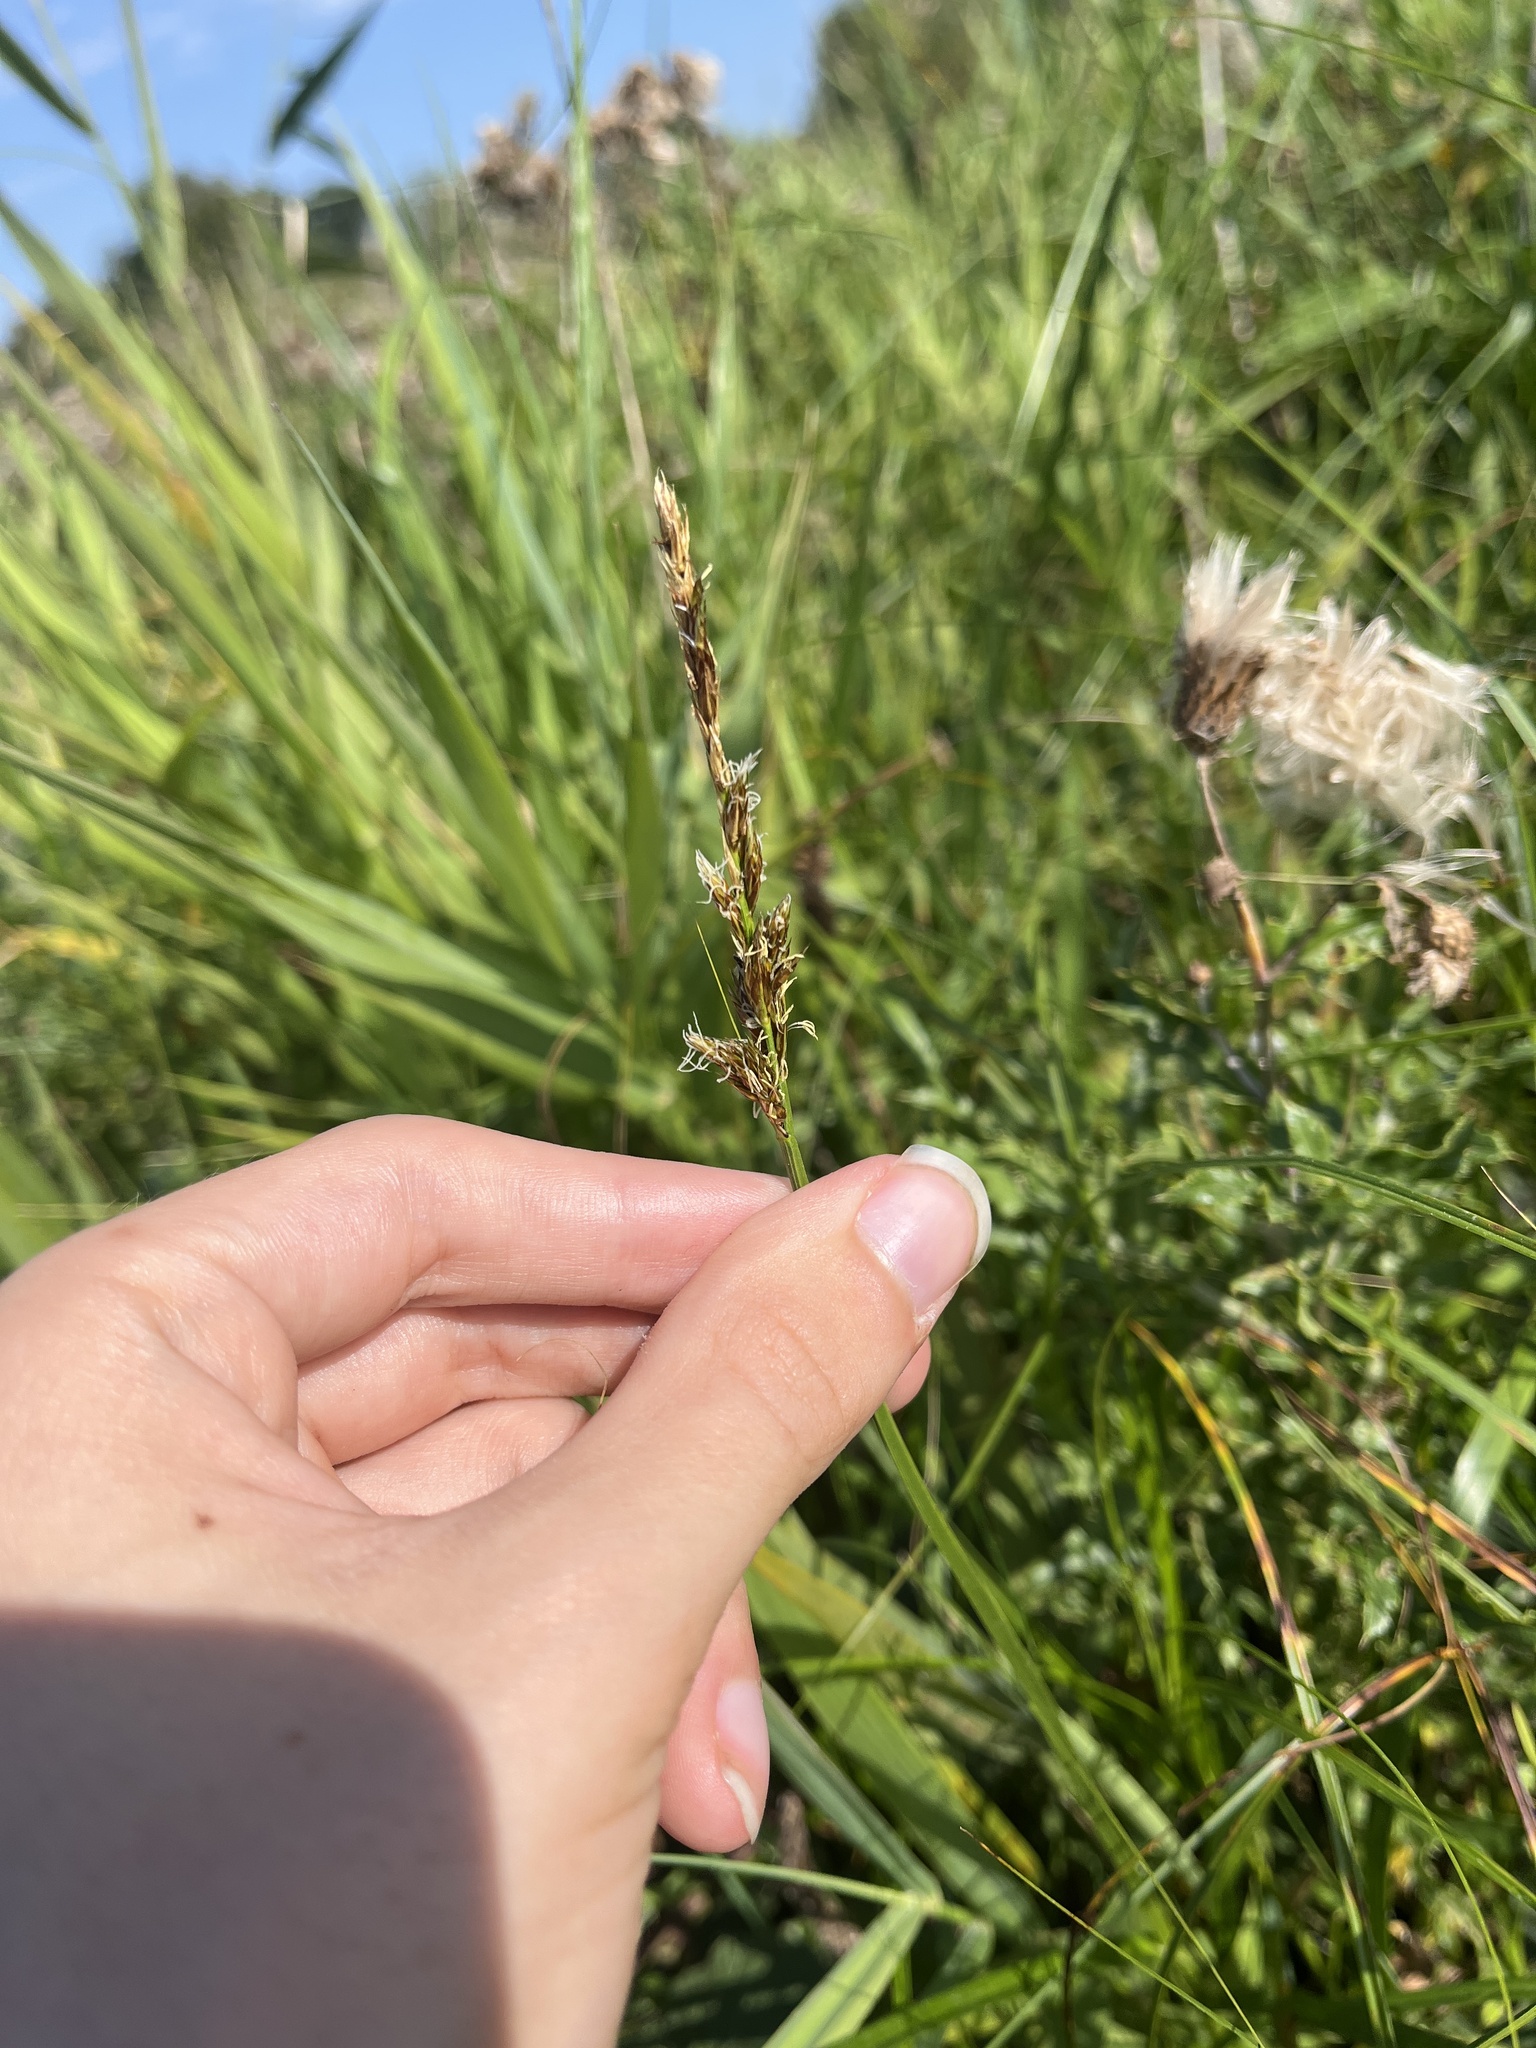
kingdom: Plantae
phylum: Tracheophyta
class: Liliopsida
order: Poales
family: Cyperaceae
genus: Carex
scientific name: Carex disticha
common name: Brown sedge
